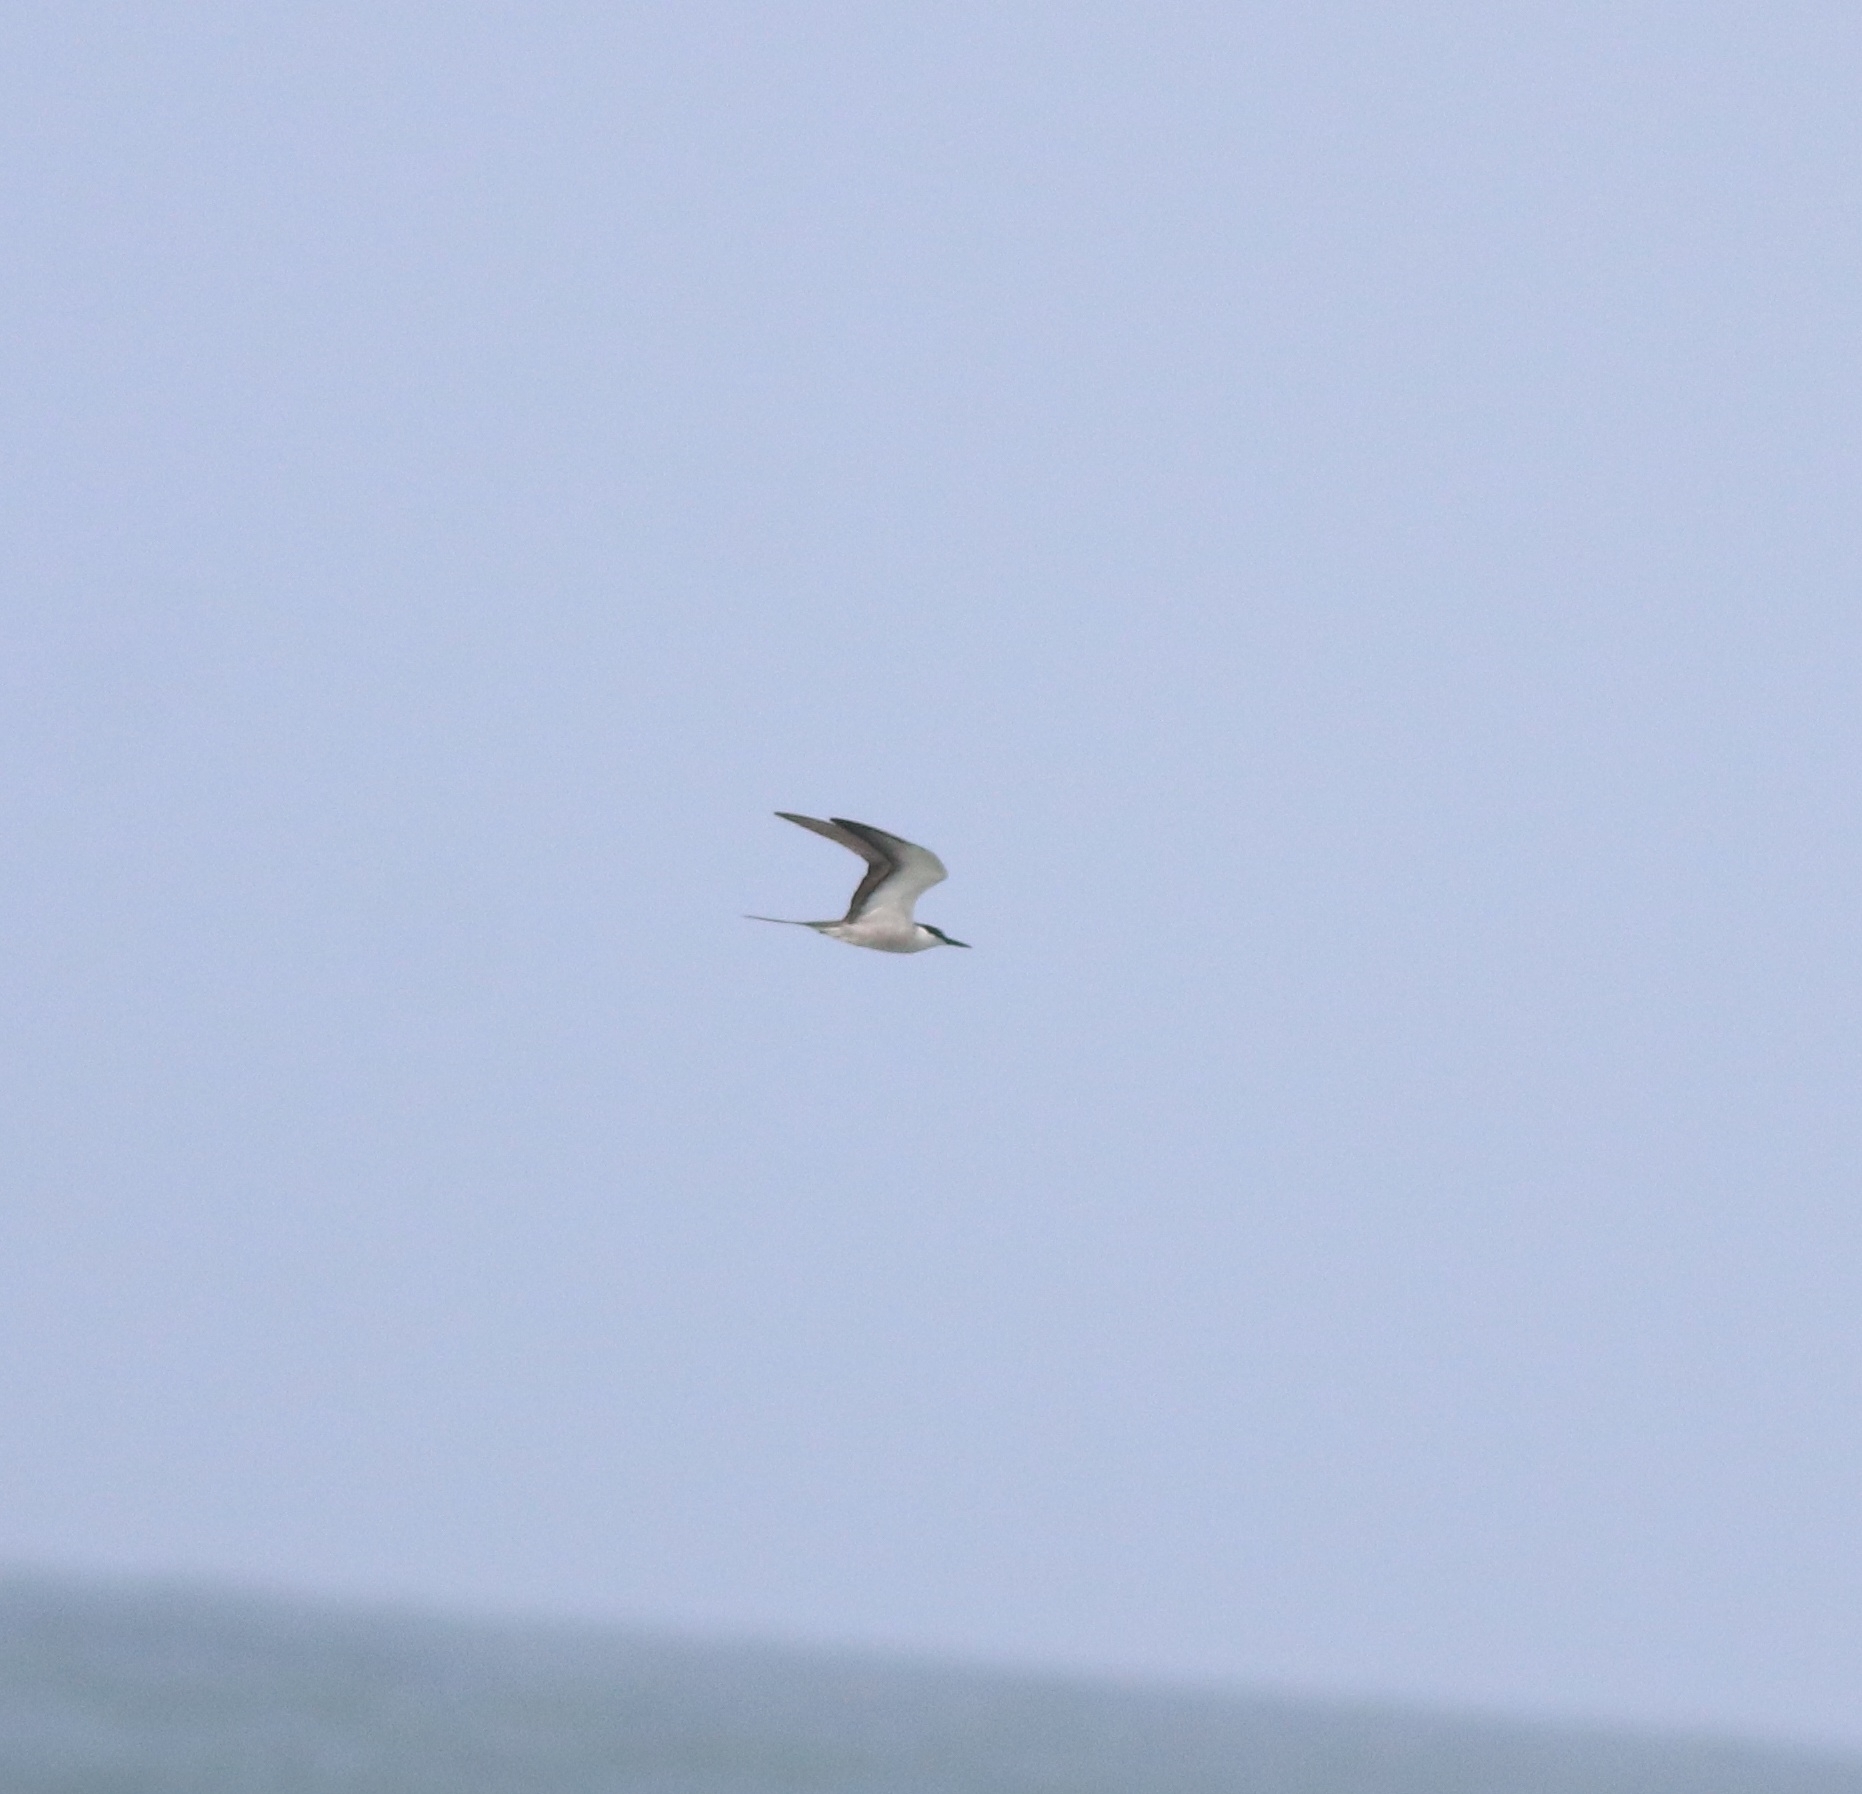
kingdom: Animalia
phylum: Chordata
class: Aves
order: Charadriiformes
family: Laridae
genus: Onychoprion
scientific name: Onychoprion anaethetus
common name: Bridled tern
